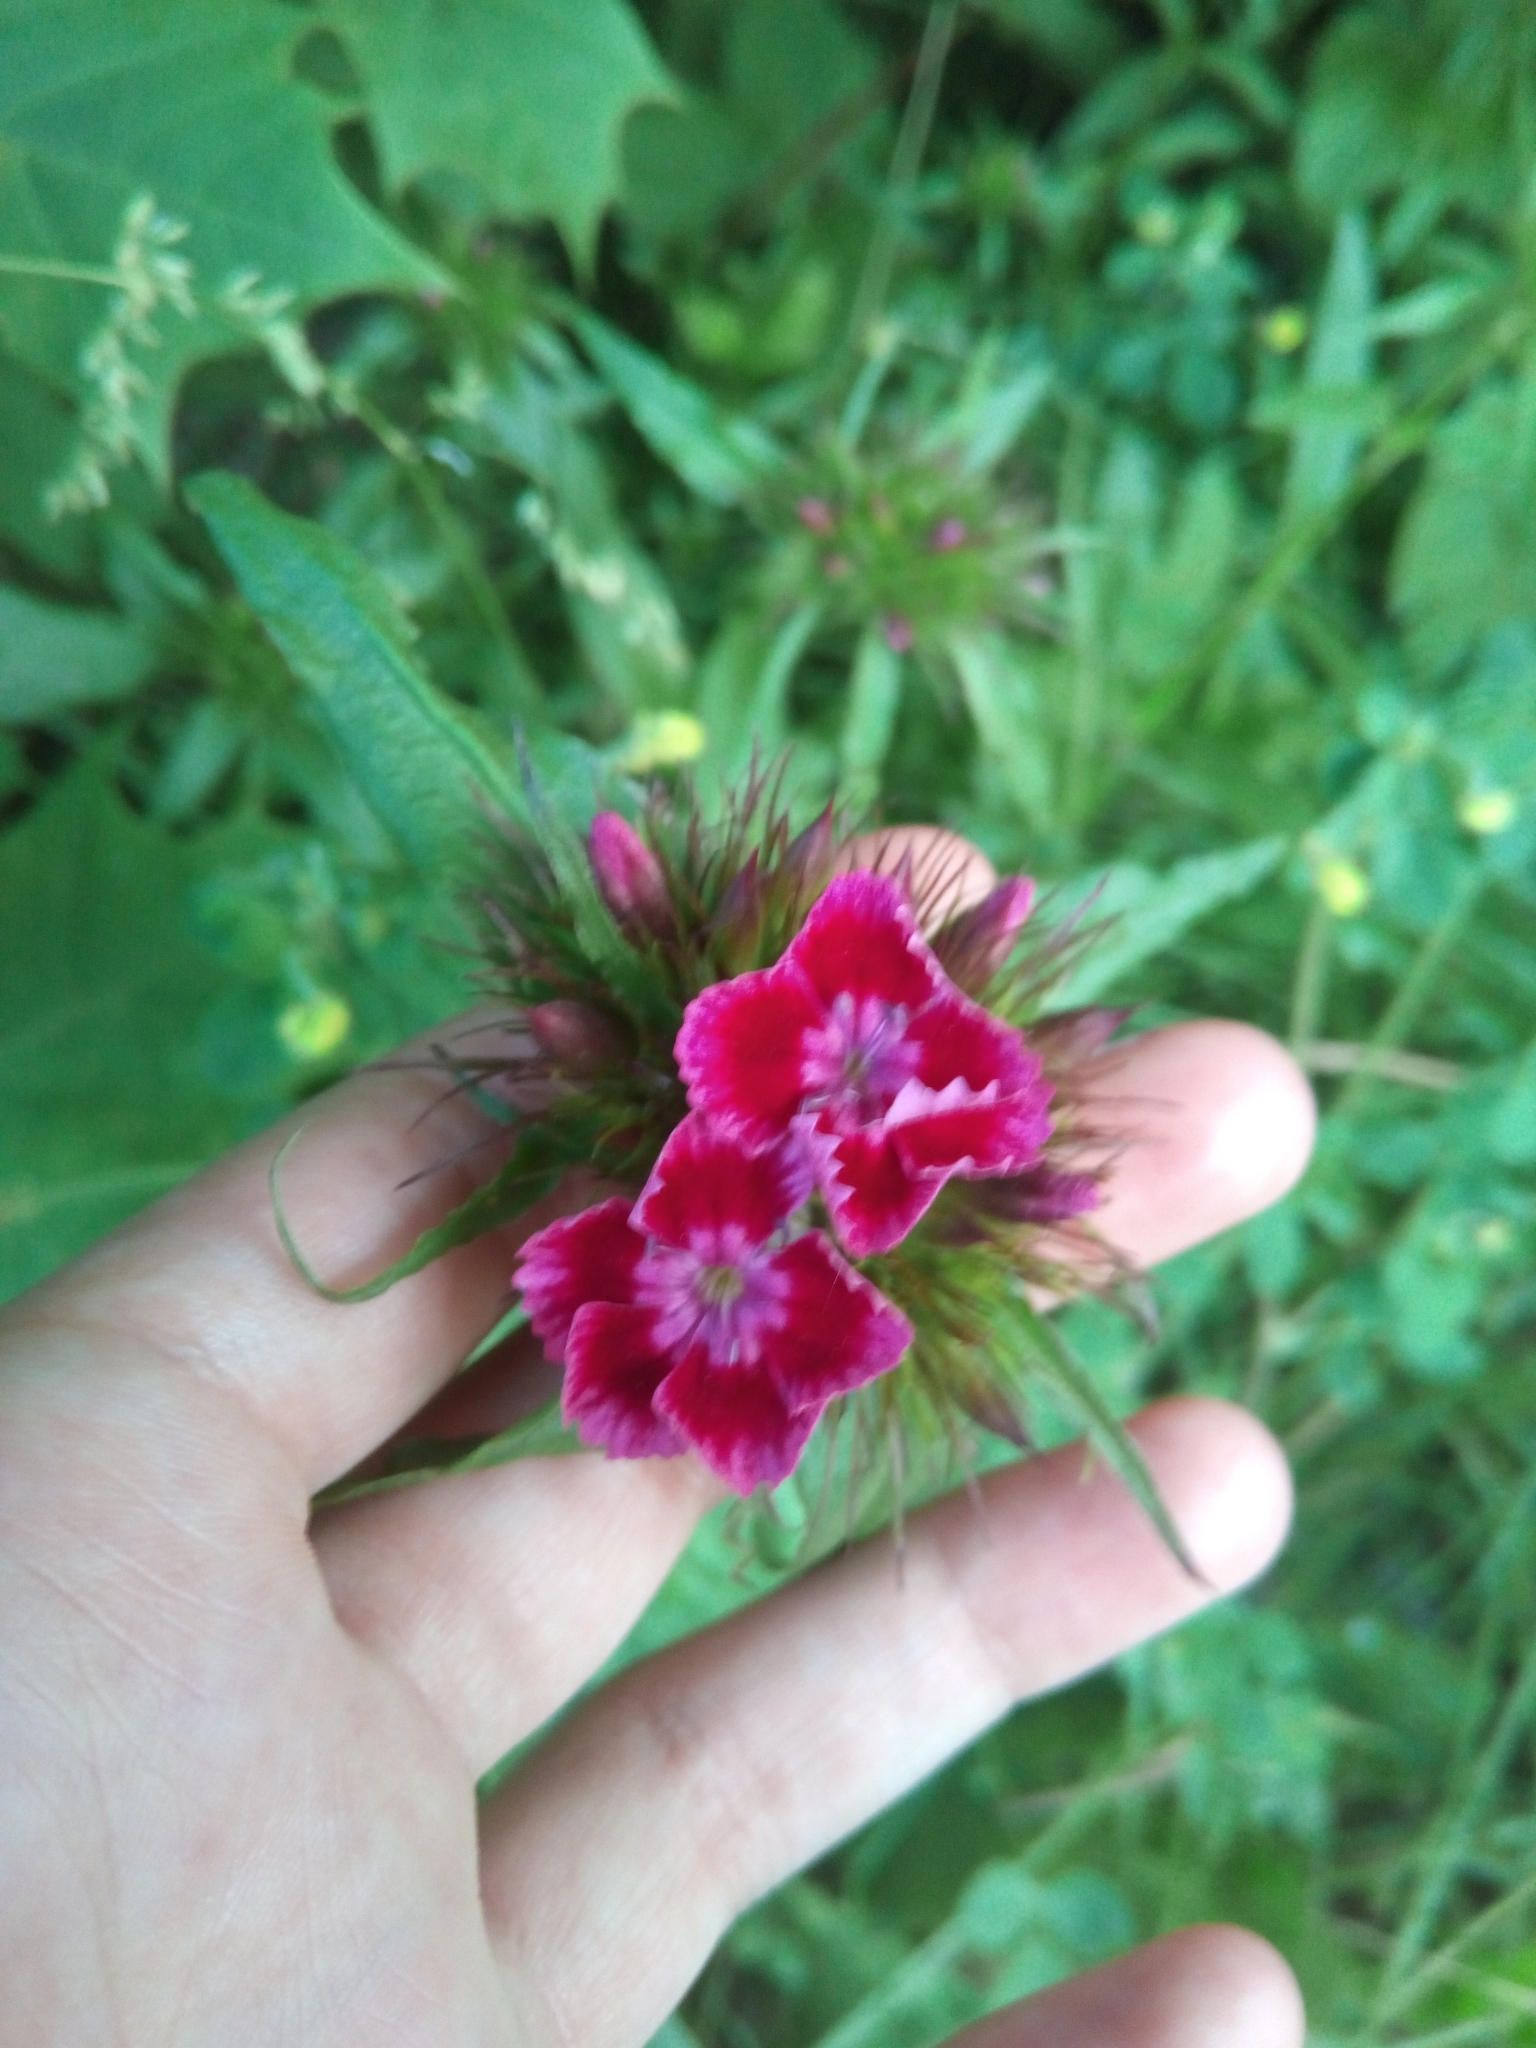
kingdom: Plantae
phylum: Tracheophyta
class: Magnoliopsida
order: Caryophyllales
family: Caryophyllaceae
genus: Dianthus
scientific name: Dianthus barbatus
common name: Sweet-william
